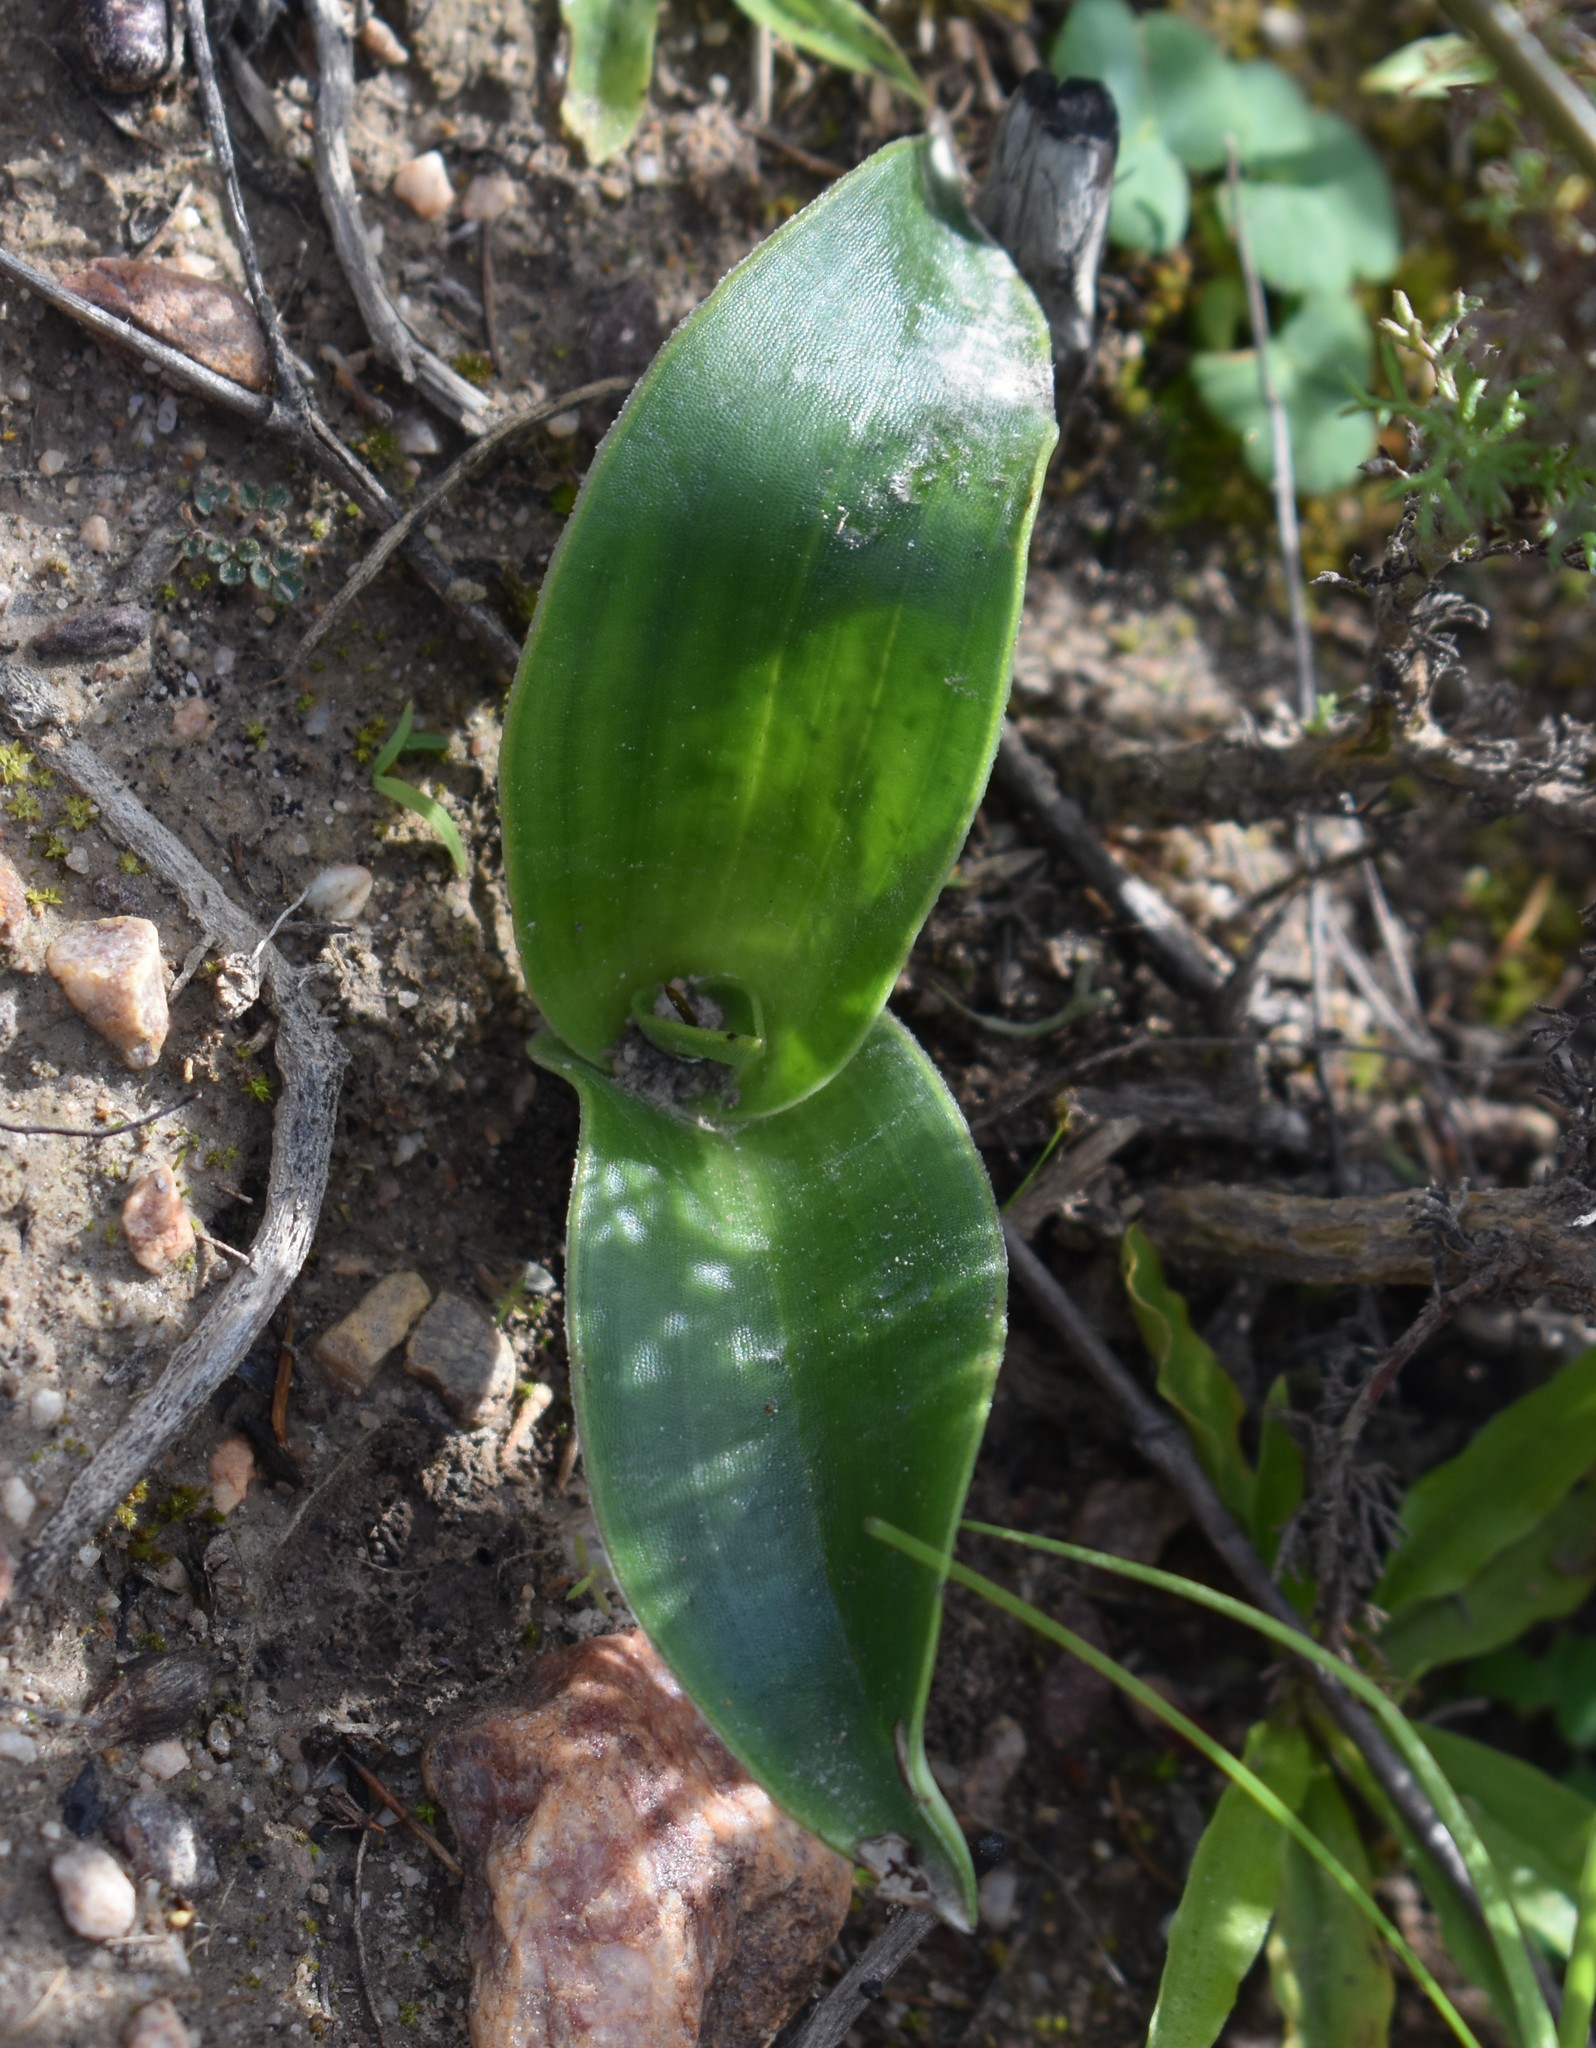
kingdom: Plantae
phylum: Tracheophyta
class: Liliopsida
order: Asparagales
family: Orchidaceae
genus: Satyrium
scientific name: Satyrium coriifolium
